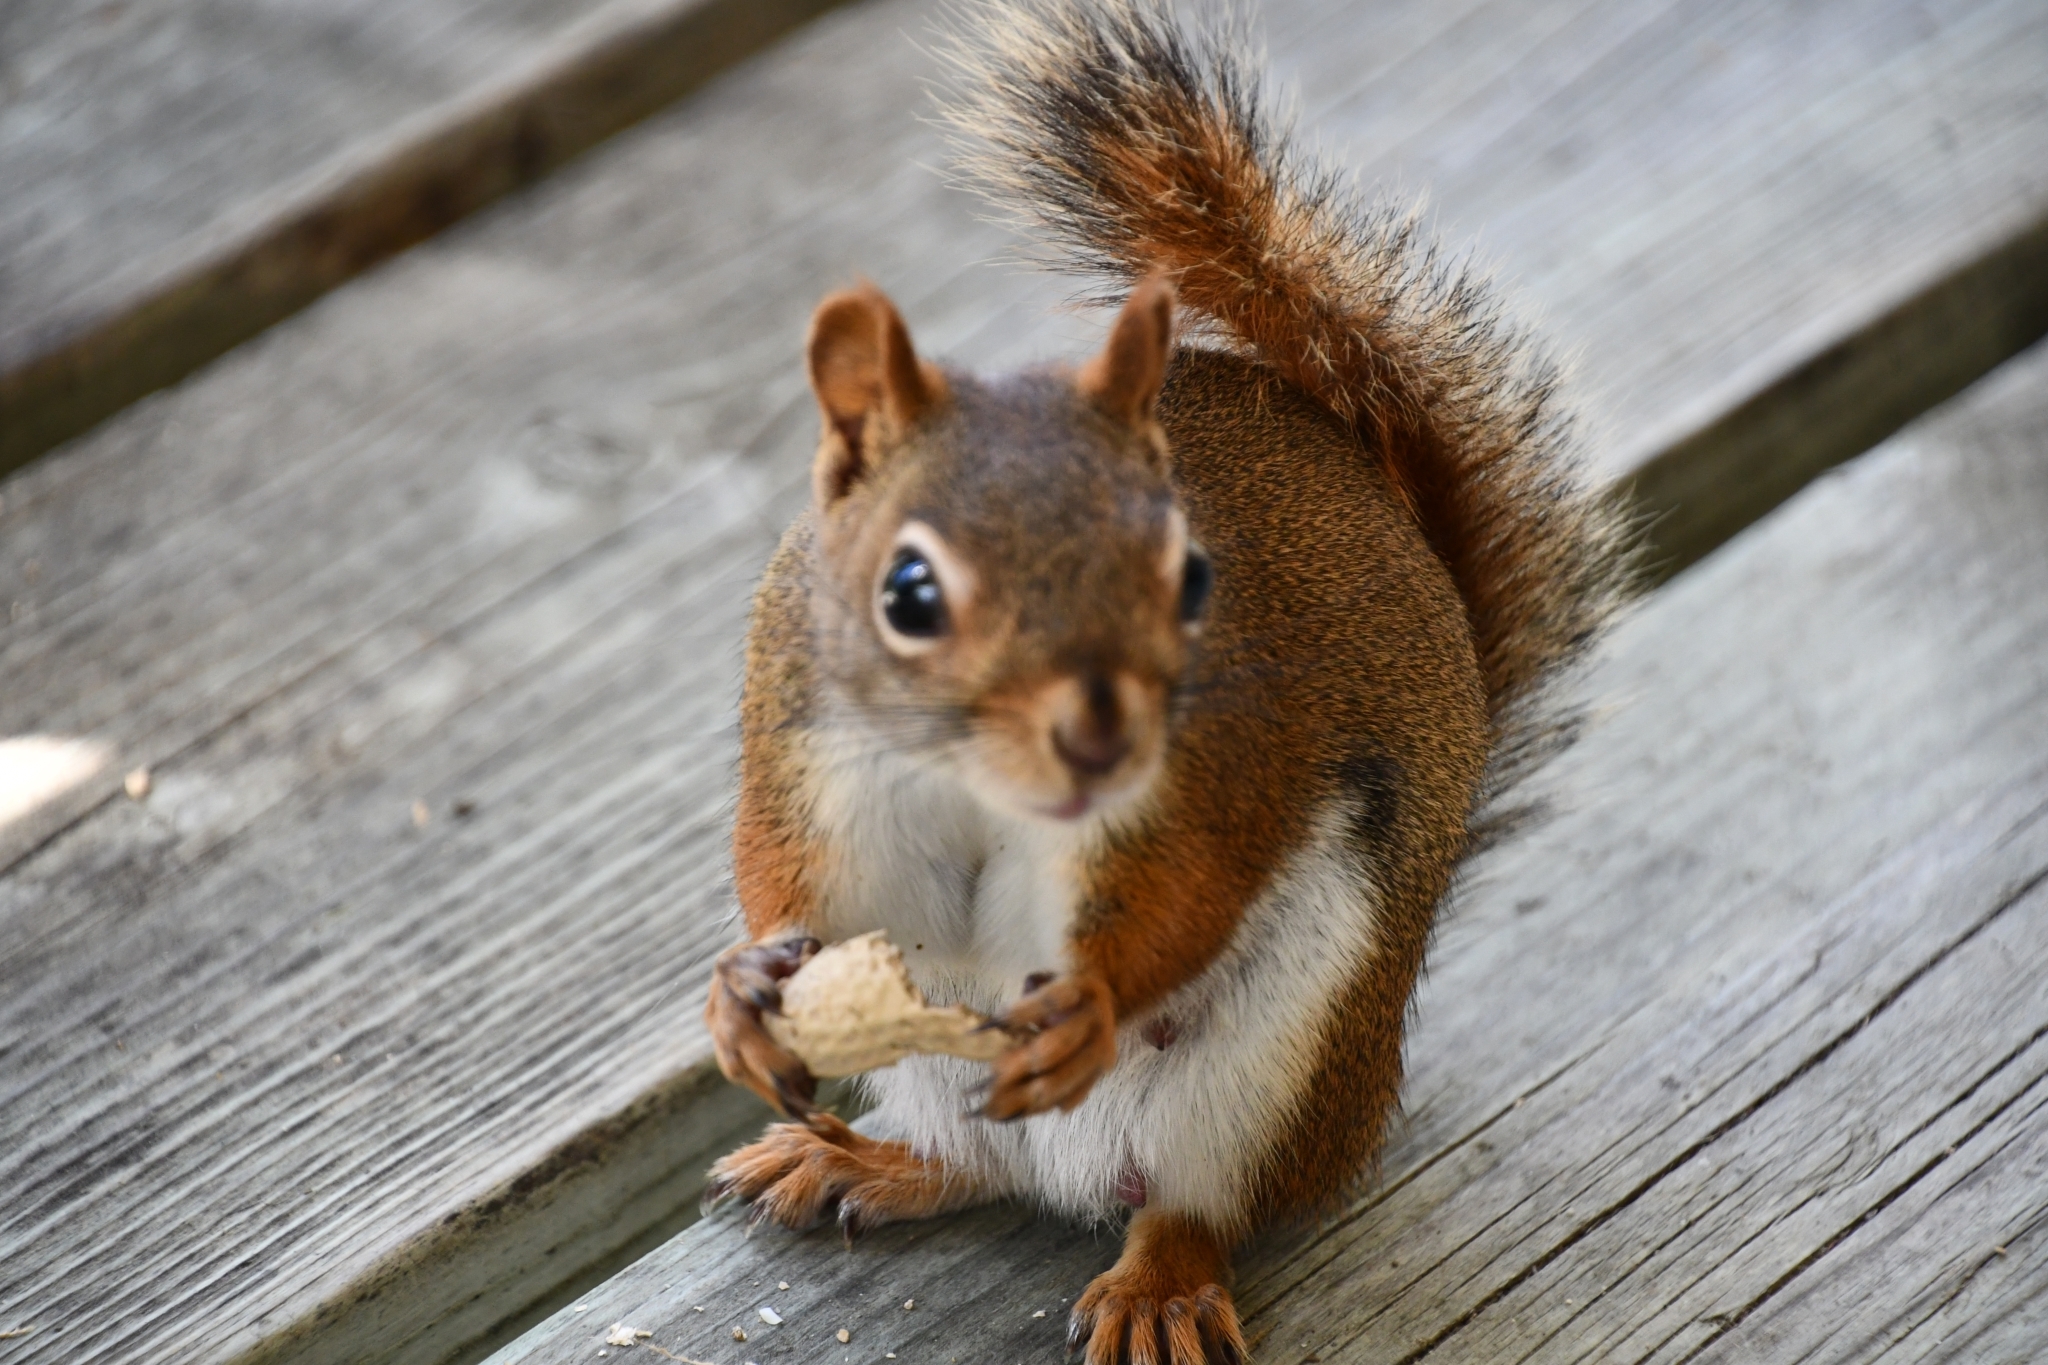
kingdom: Animalia
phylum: Chordata
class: Mammalia
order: Rodentia
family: Sciuridae
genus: Tamiasciurus
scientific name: Tamiasciurus hudsonicus
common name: Red squirrel
